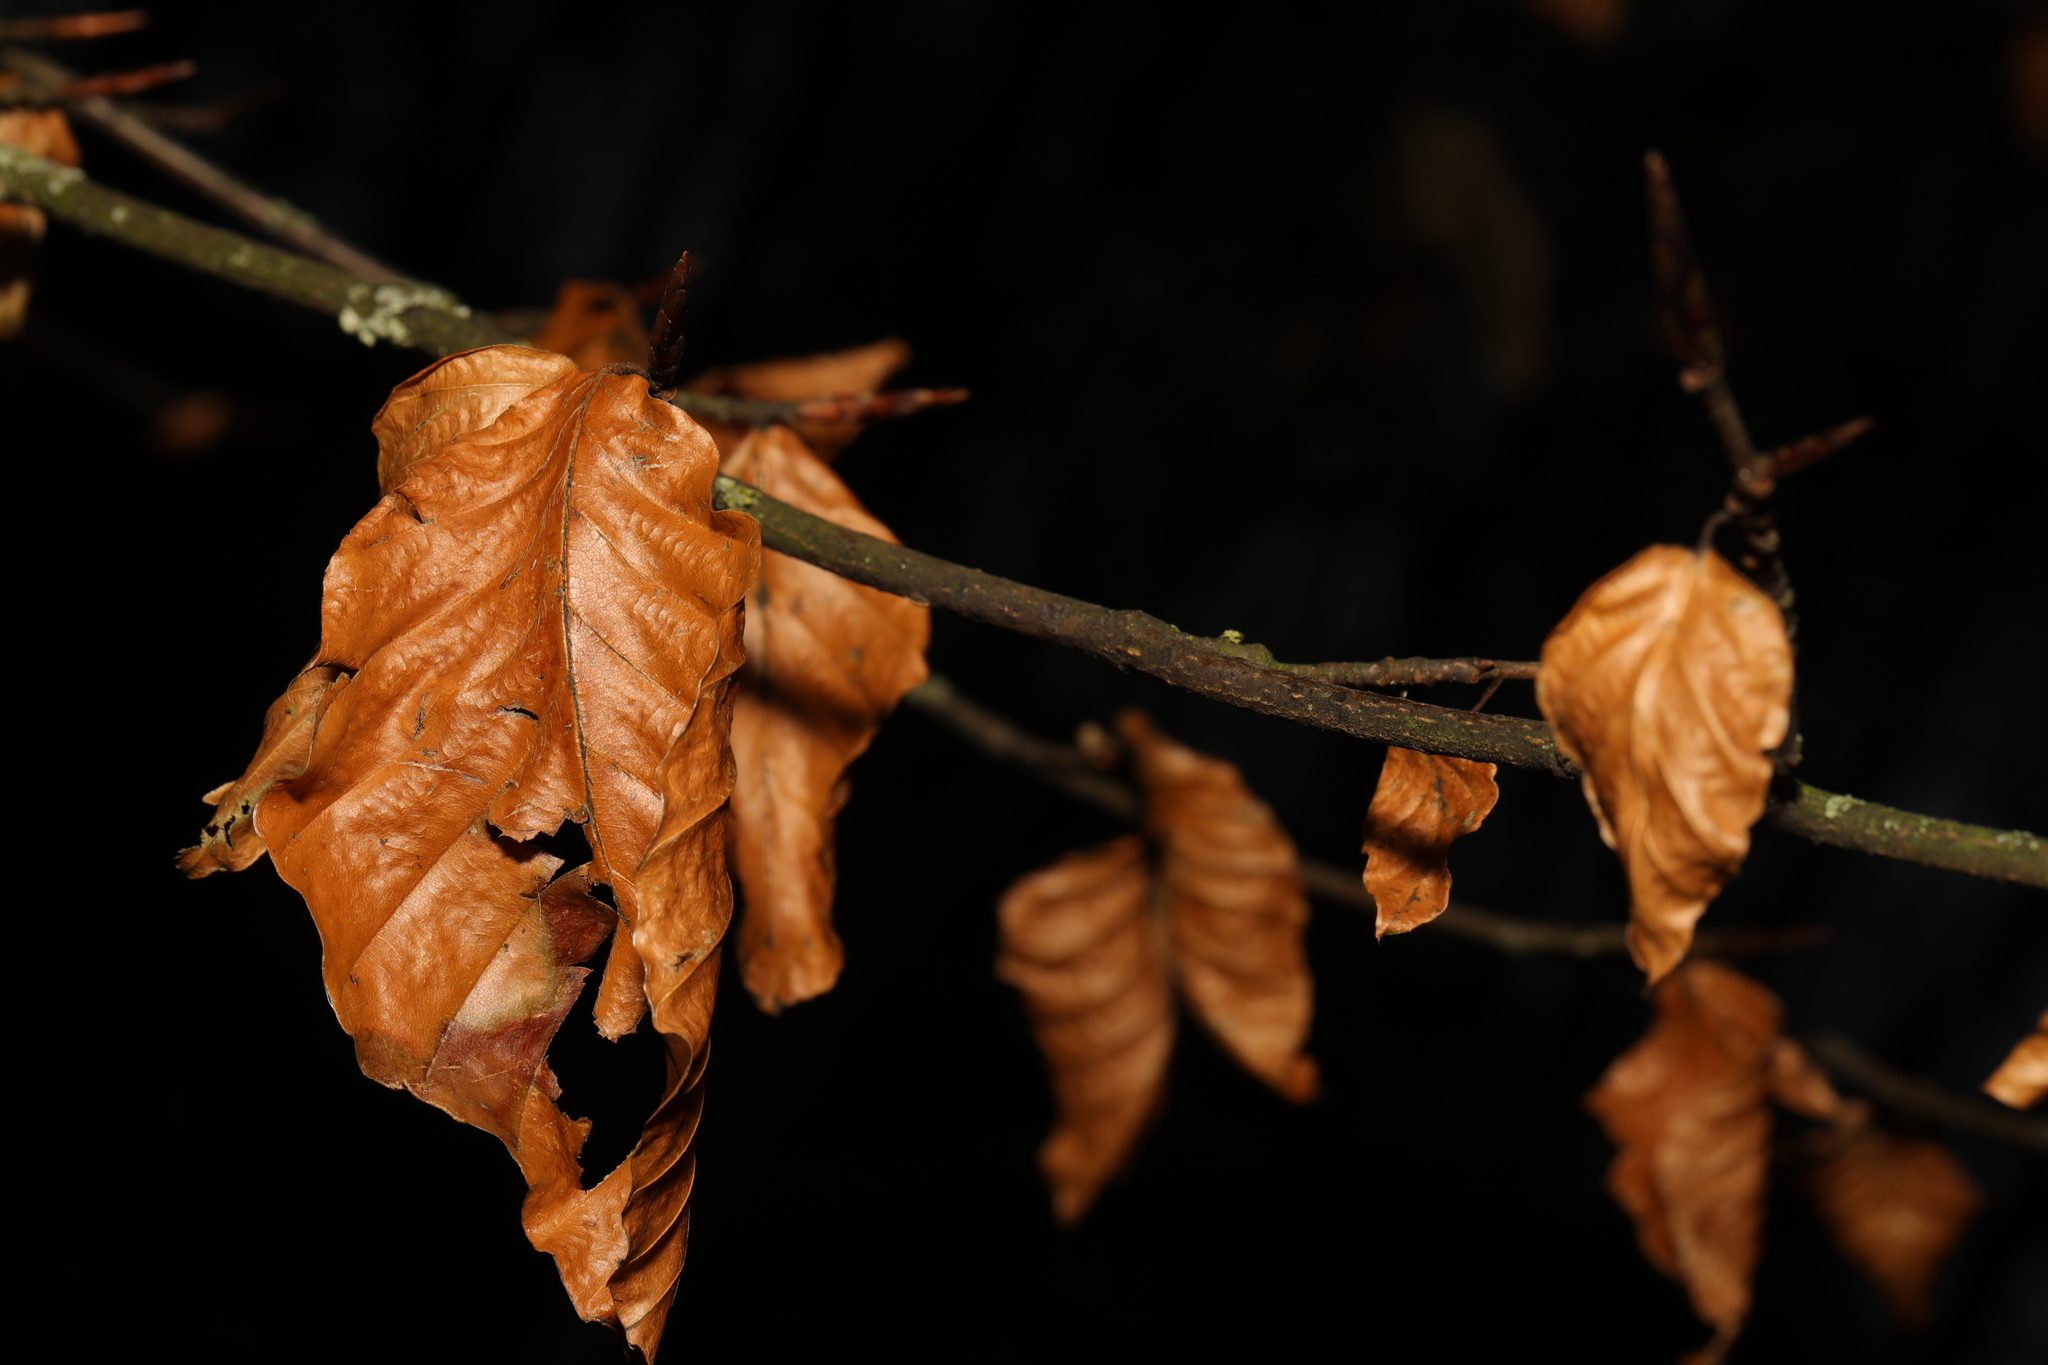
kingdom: Plantae
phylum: Tracheophyta
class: Magnoliopsida
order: Fagales
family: Fagaceae
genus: Fagus
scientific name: Fagus sylvatica
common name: Beech
